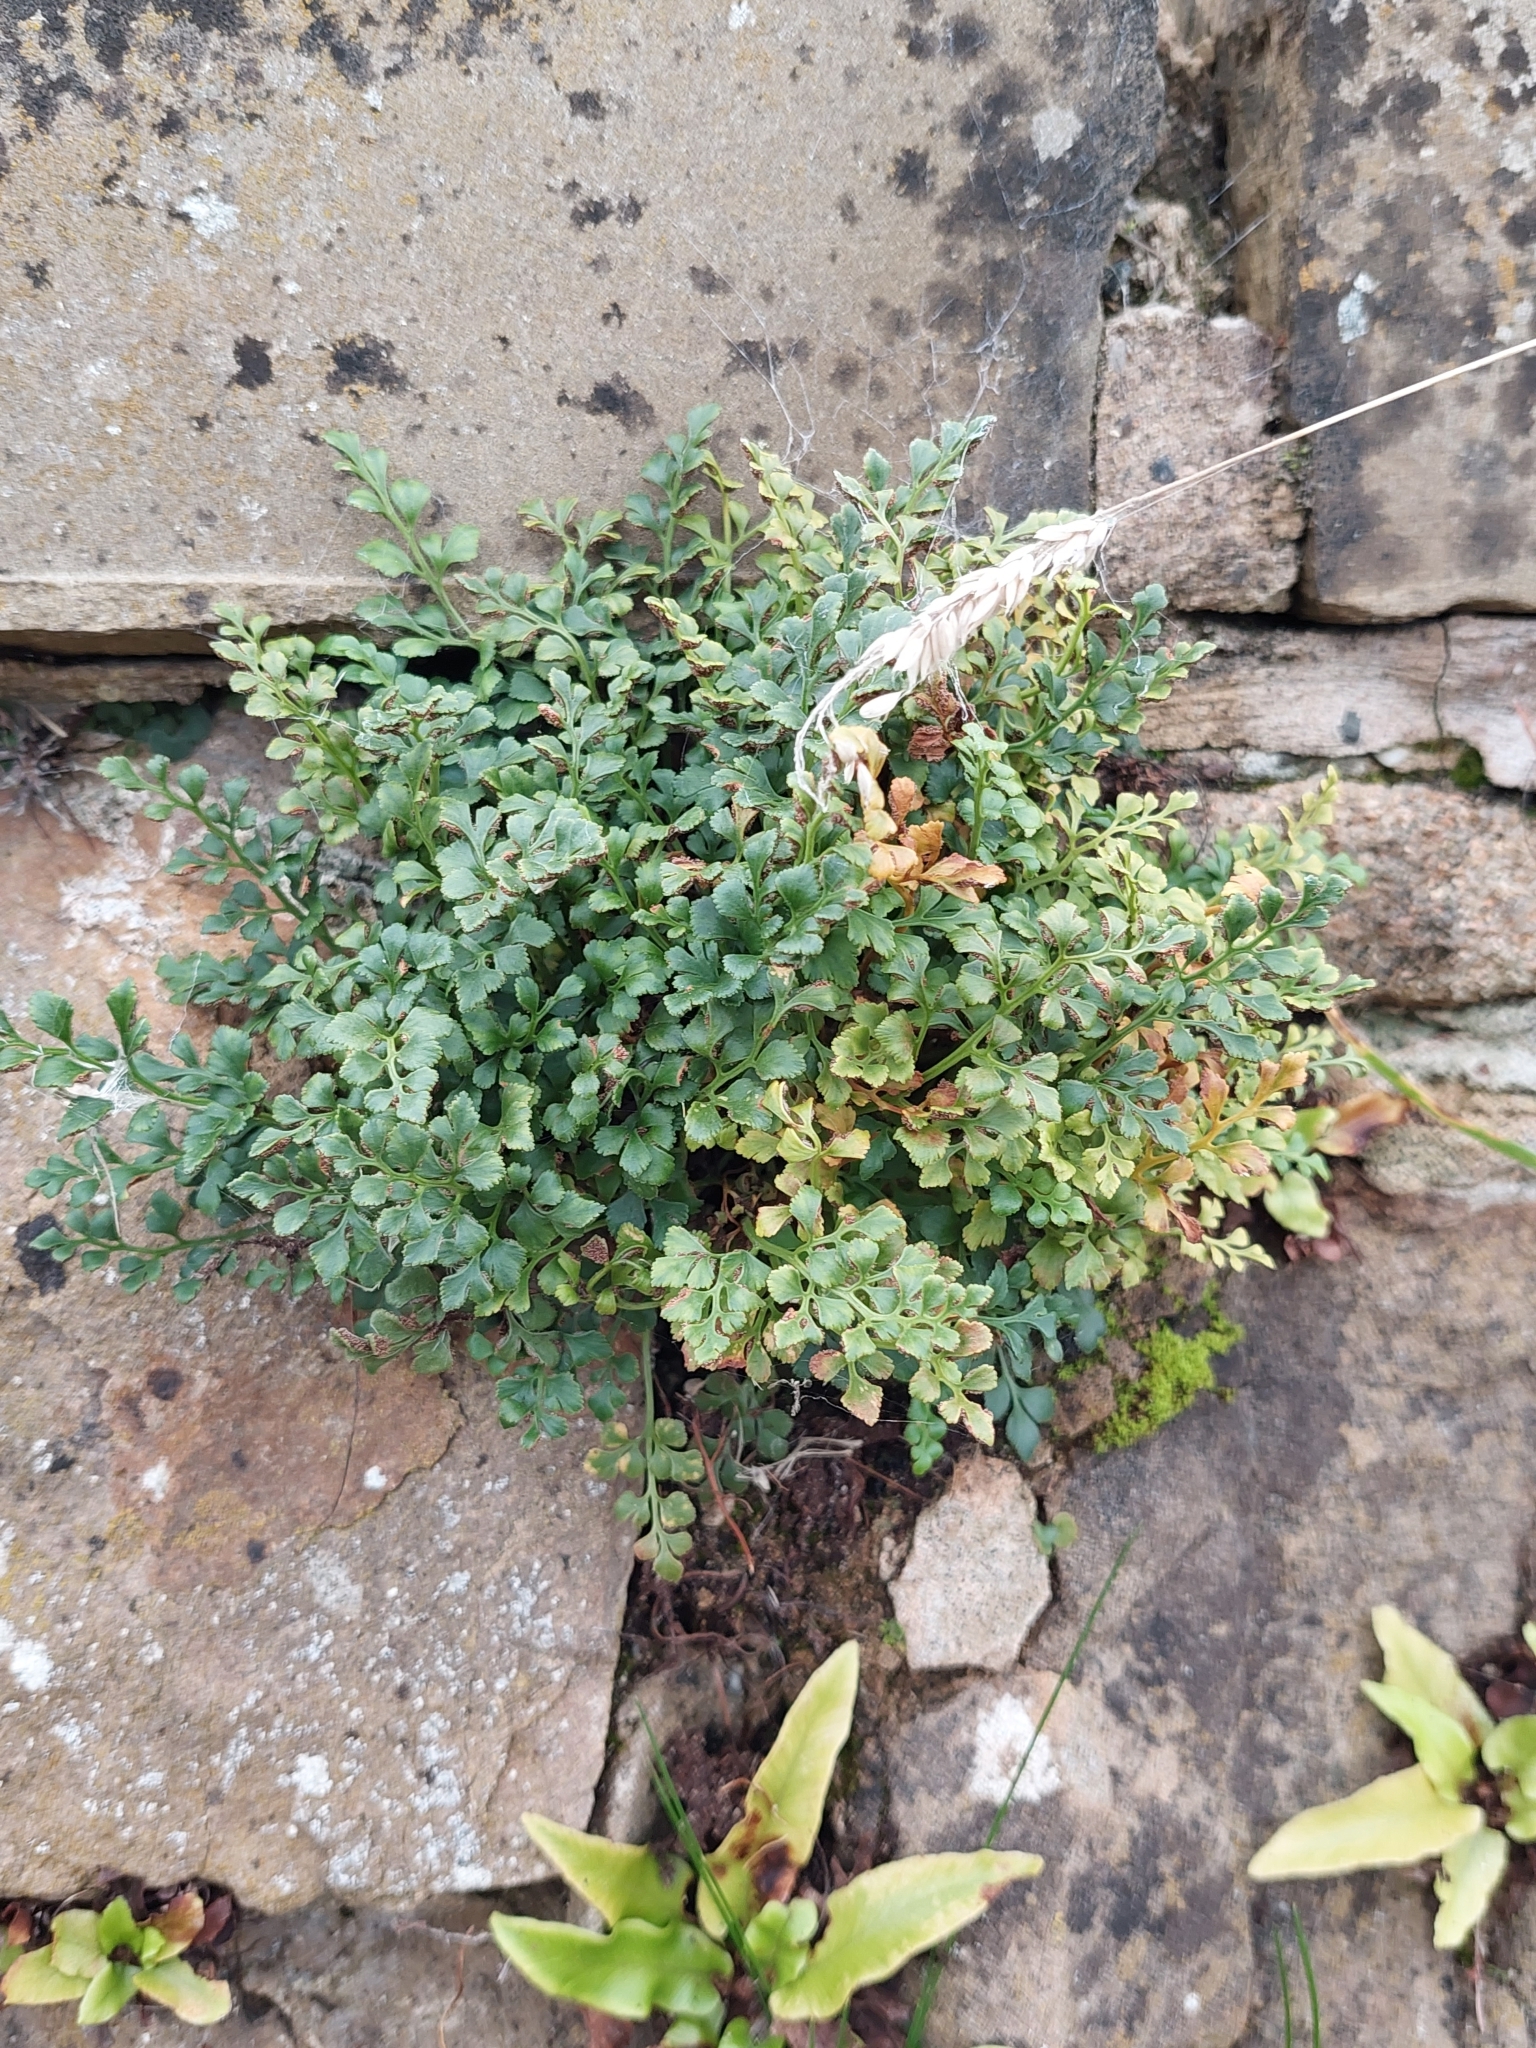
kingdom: Plantae
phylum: Tracheophyta
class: Polypodiopsida
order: Polypodiales
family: Aspleniaceae
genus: Asplenium
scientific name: Asplenium ruta-muraria
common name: Wall-rue
